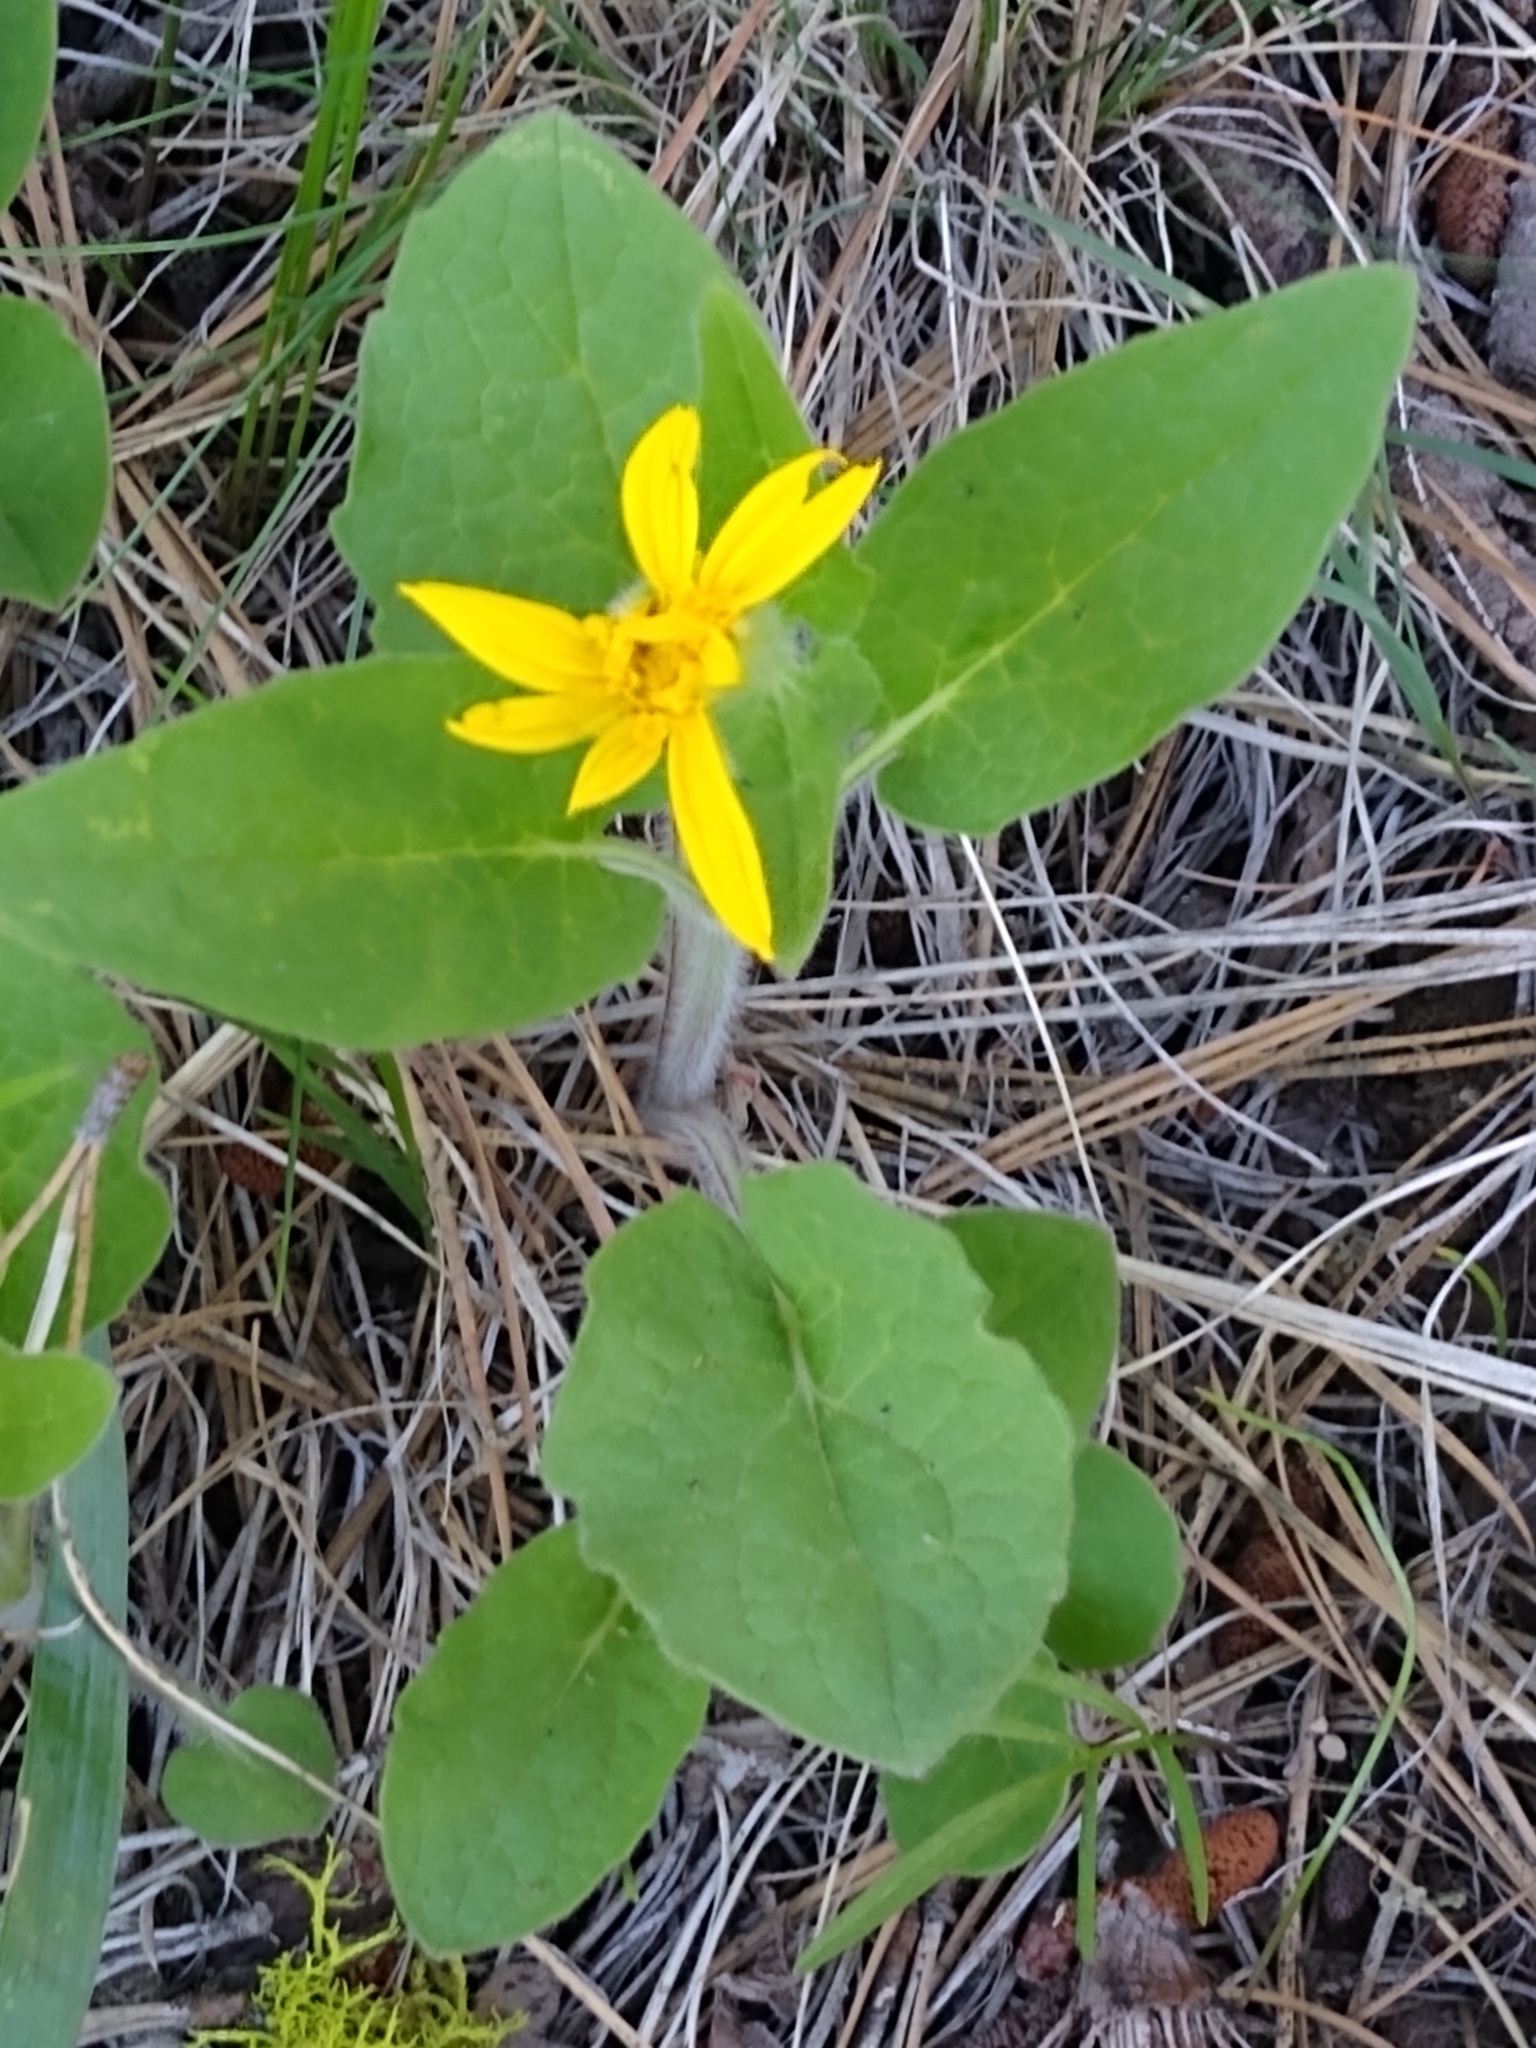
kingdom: Plantae
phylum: Tracheophyta
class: Magnoliopsida
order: Asterales
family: Asteraceae
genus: Arnica
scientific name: Arnica cordifolia
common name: Heart-leaf arnica
